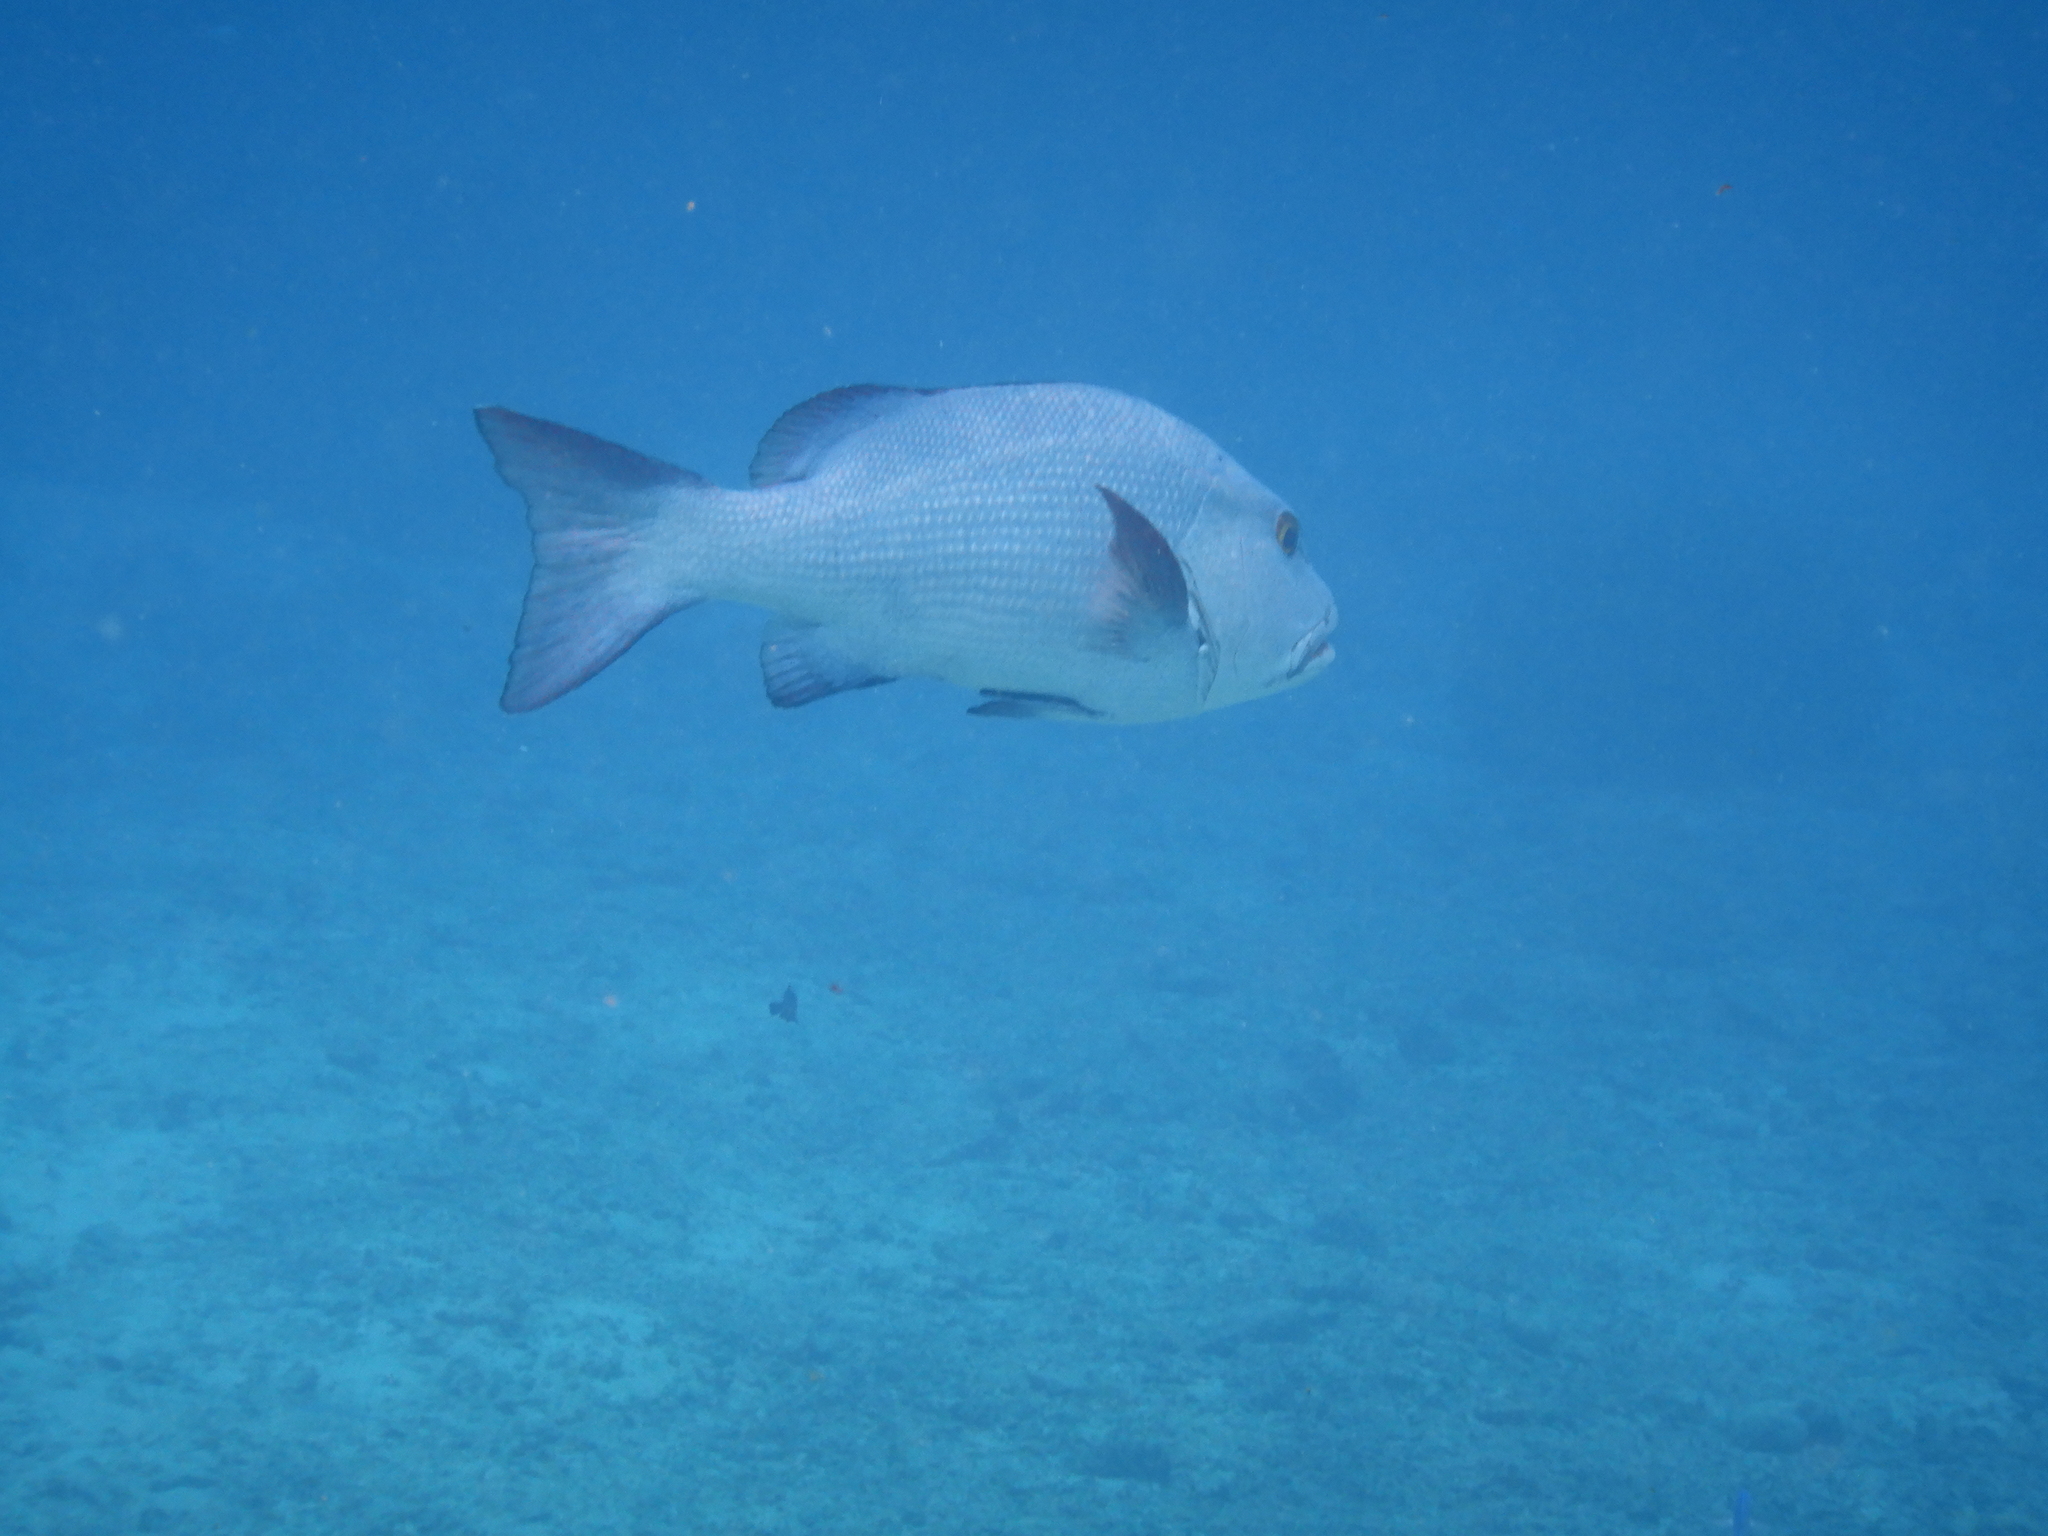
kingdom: Animalia
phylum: Chordata
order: Perciformes
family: Lutjanidae
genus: Lutjanus
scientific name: Lutjanus bohar
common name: Red bass
